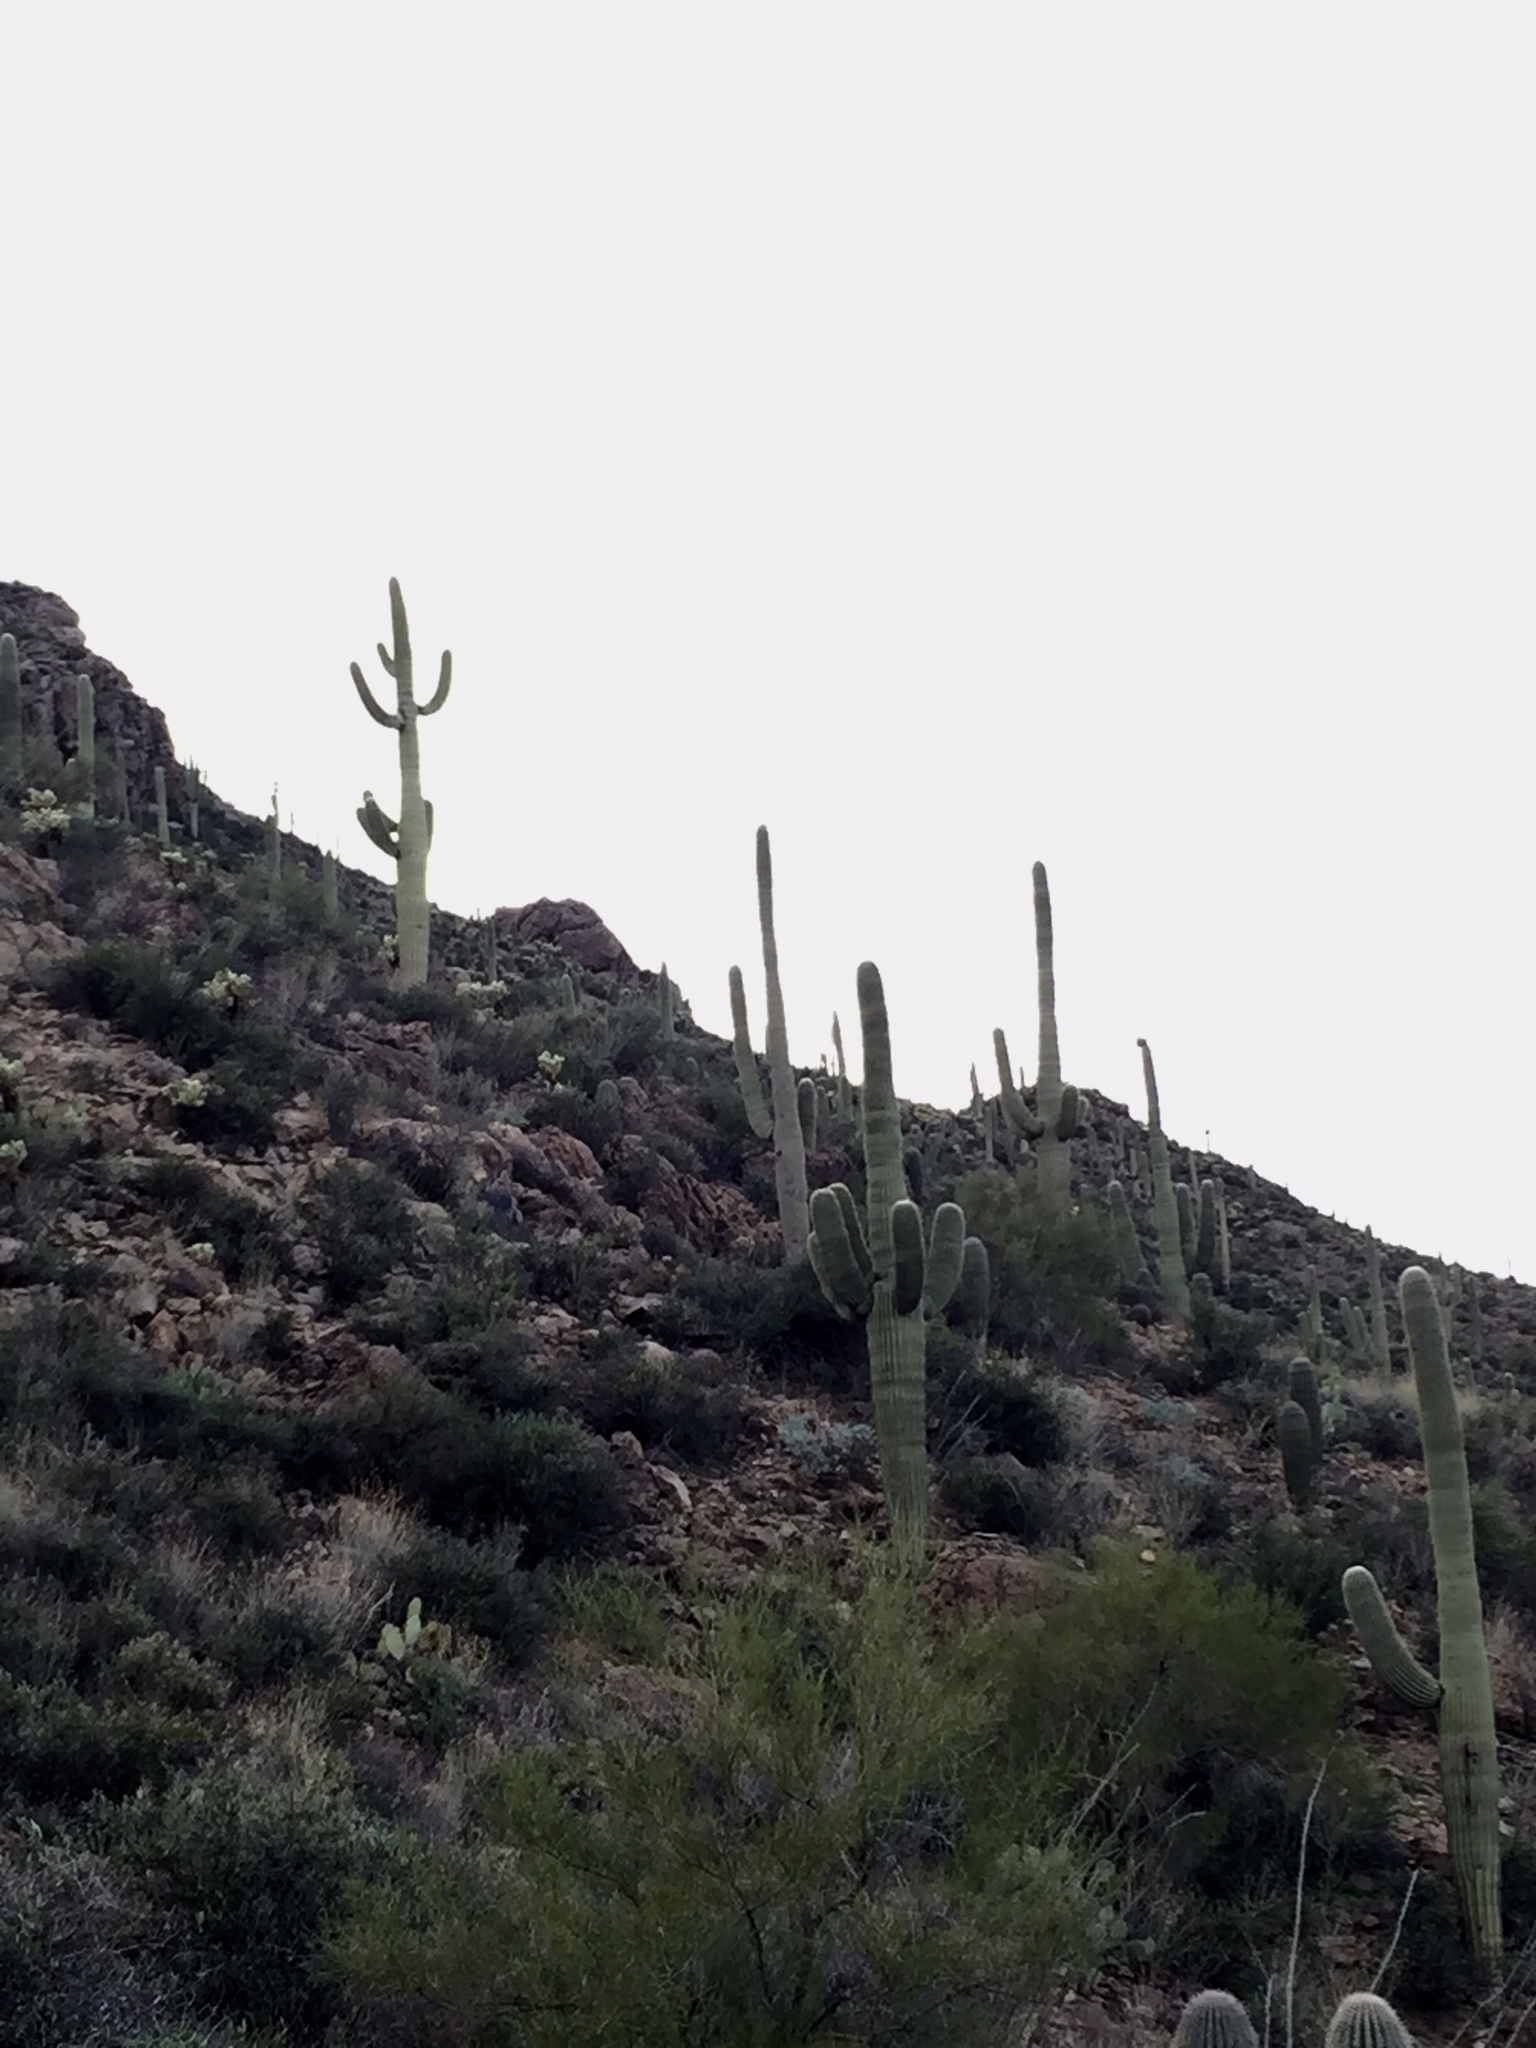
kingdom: Plantae
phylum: Tracheophyta
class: Magnoliopsida
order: Caryophyllales
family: Cactaceae
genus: Carnegiea
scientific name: Carnegiea gigantea
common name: Saguaro
